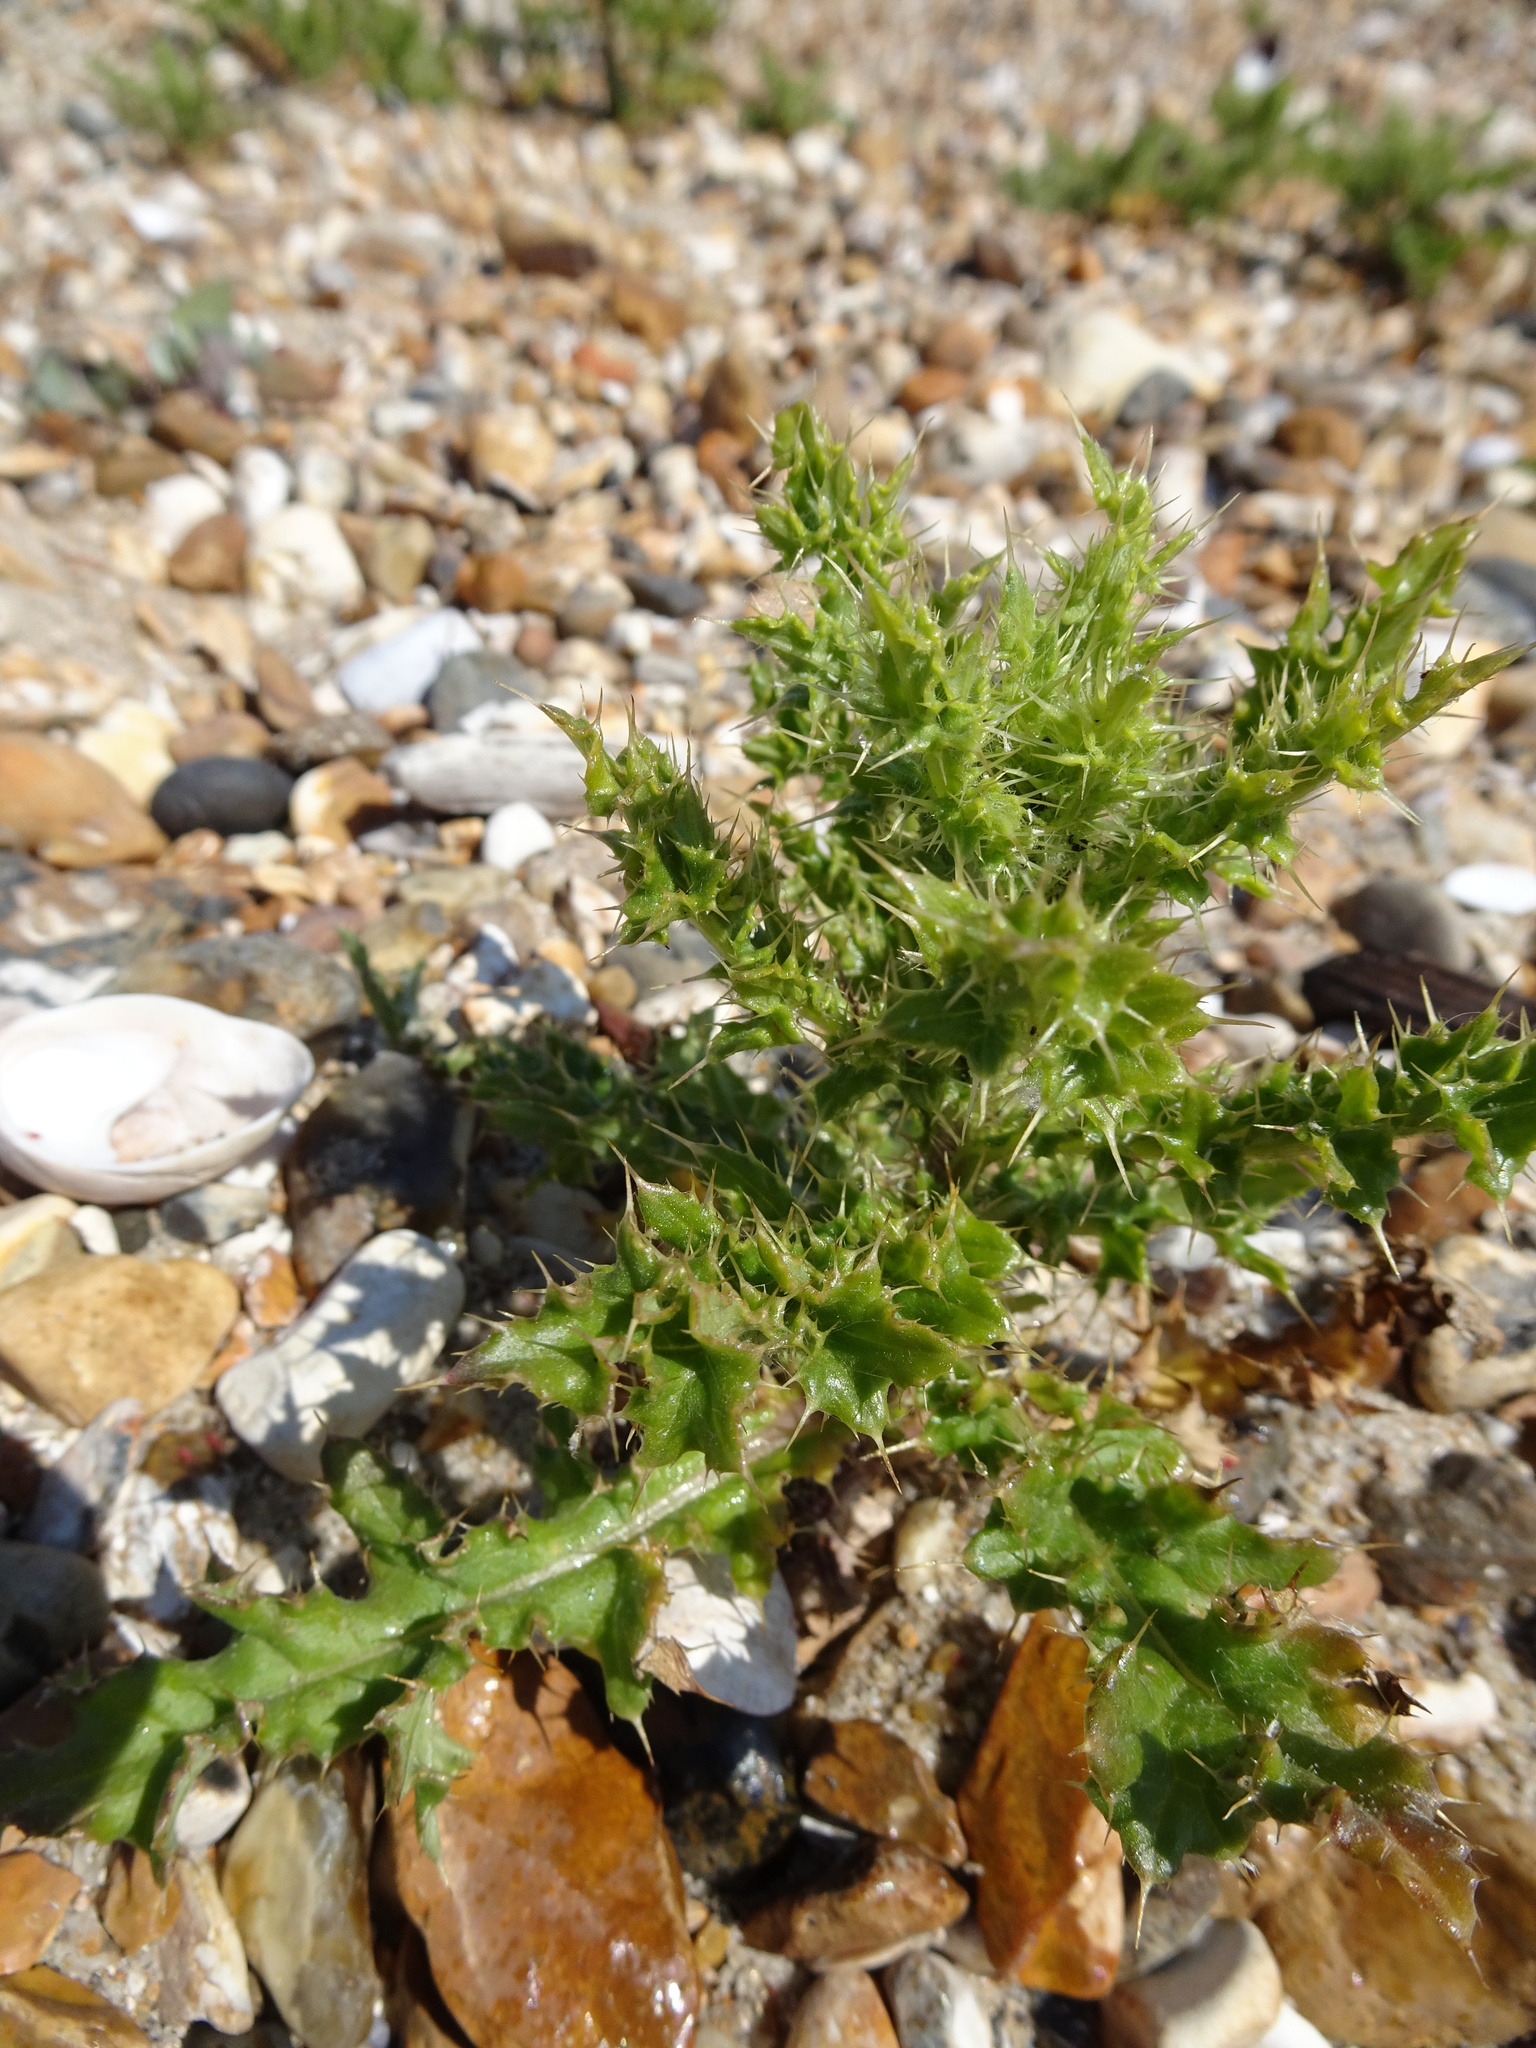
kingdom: Plantae
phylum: Tracheophyta
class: Magnoliopsida
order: Asterales
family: Asteraceae
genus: Cirsium
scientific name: Cirsium arvense
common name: Creeping thistle
